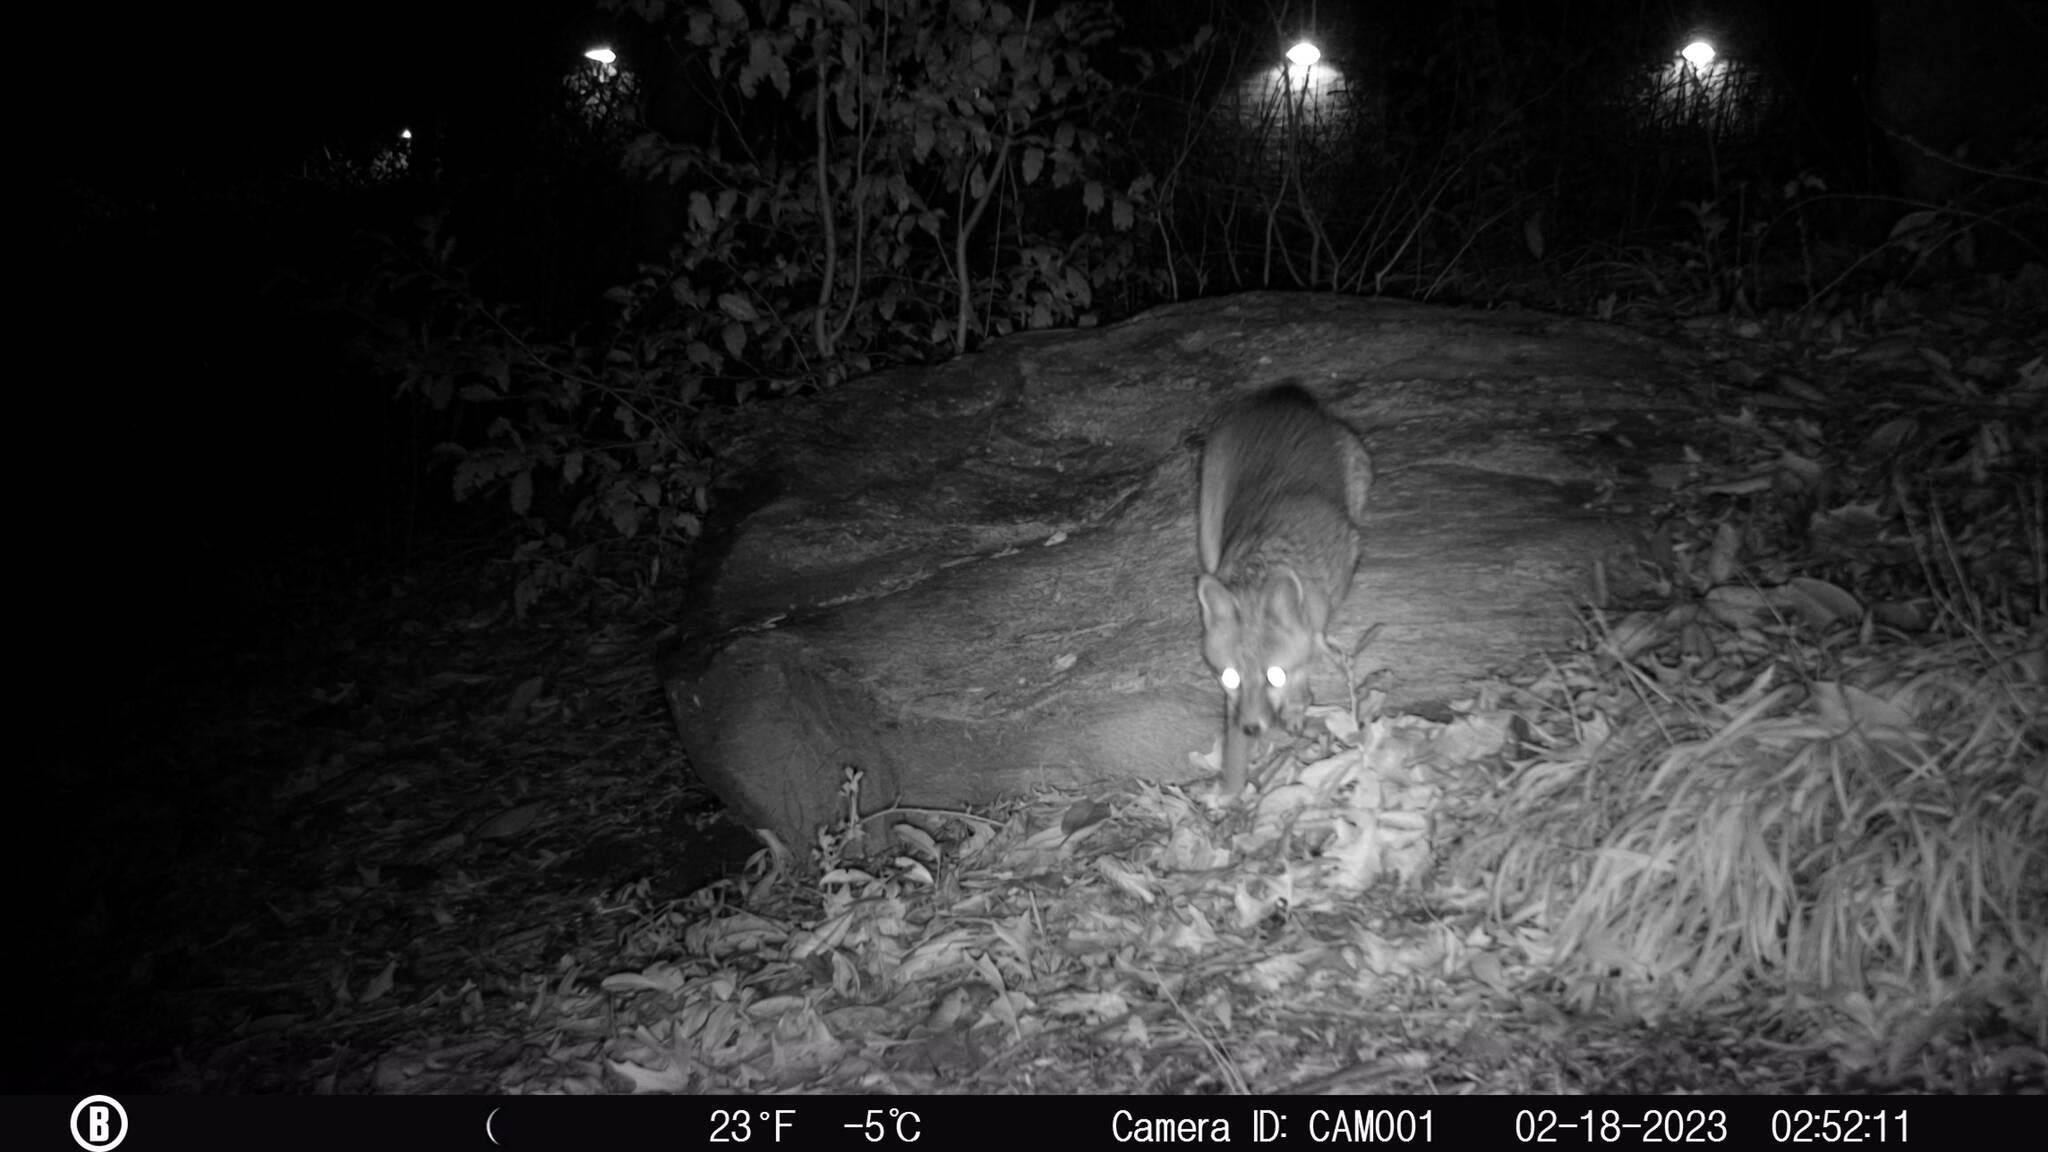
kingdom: Animalia
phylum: Chordata
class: Mammalia
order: Carnivora
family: Canidae
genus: Urocyon
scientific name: Urocyon cinereoargenteus
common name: Gray fox
